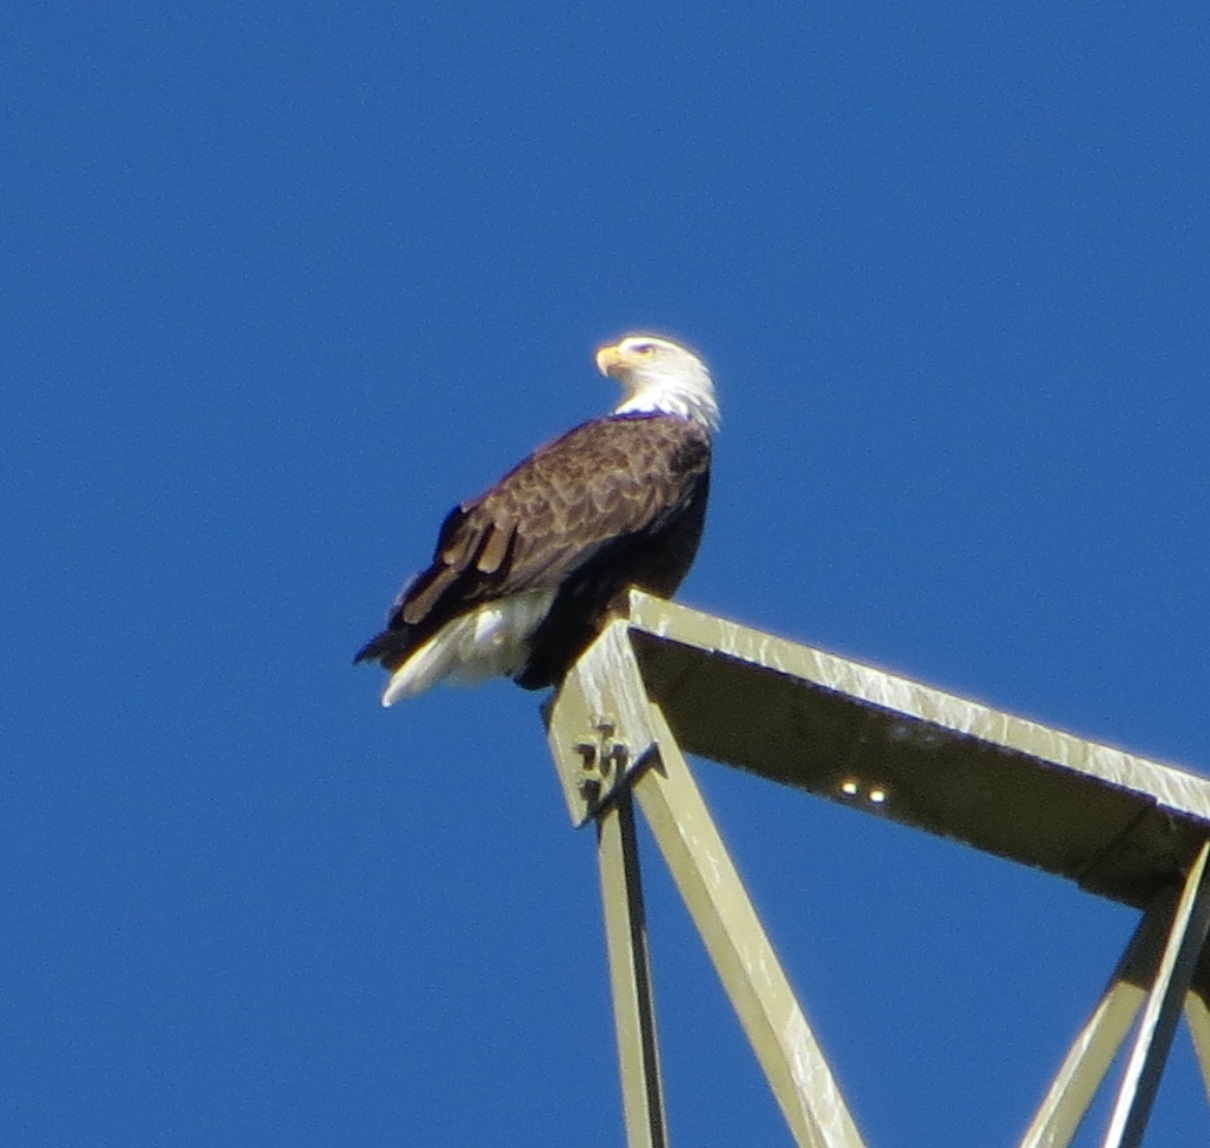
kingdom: Animalia
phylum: Chordata
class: Aves
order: Accipitriformes
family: Accipitridae
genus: Haliaeetus
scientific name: Haliaeetus leucocephalus
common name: Bald eagle
